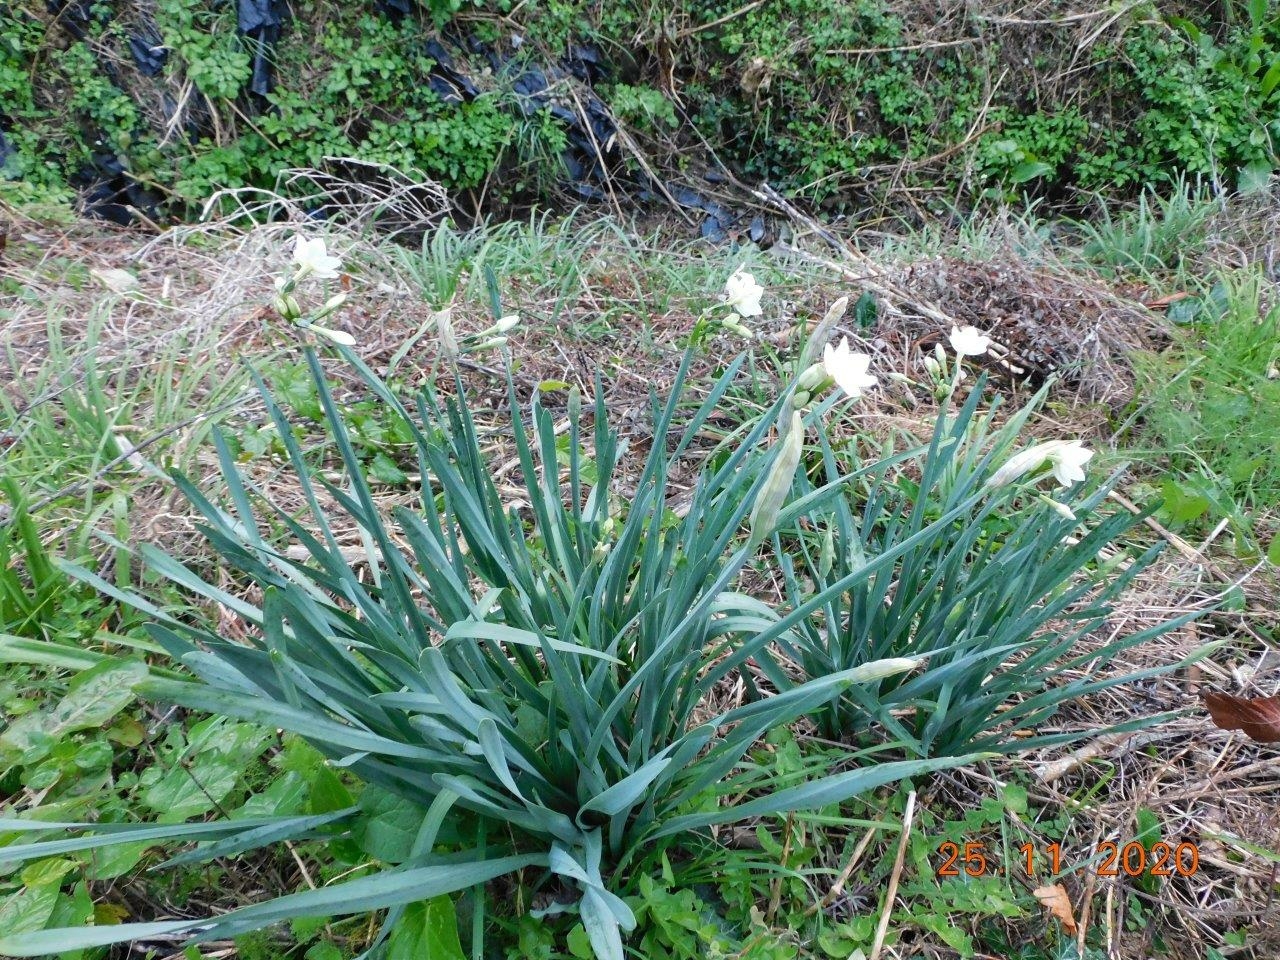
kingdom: Plantae
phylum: Tracheophyta
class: Liliopsida
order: Asparagales
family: Amaryllidaceae
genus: Narcissus
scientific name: Narcissus papyraceus
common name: Paper-white daffodil
